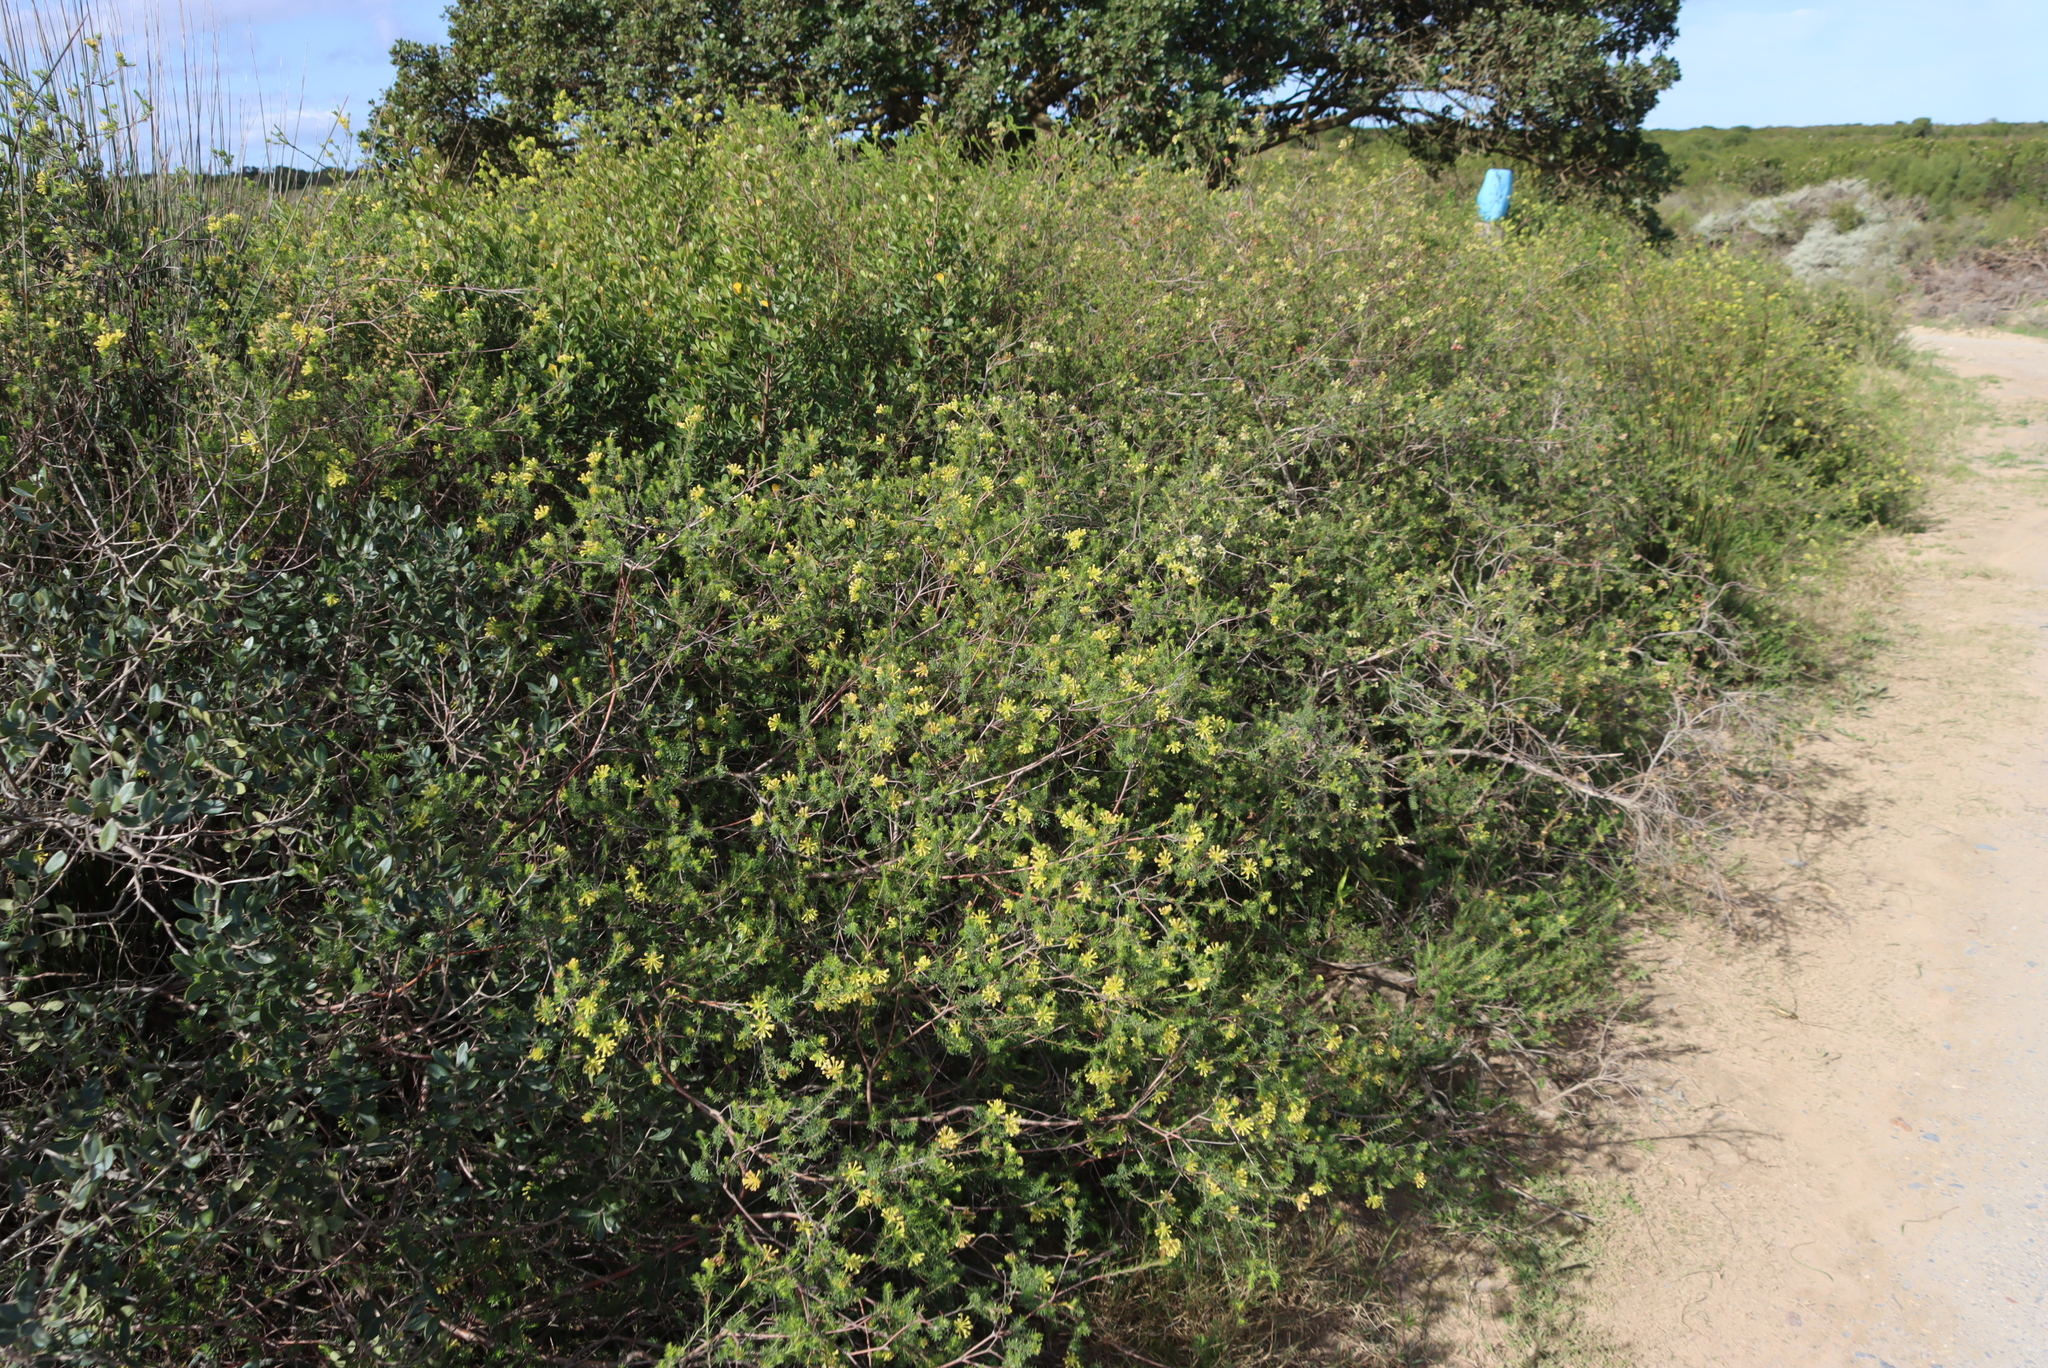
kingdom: Plantae
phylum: Tracheophyta
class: Magnoliopsida
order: Malvales
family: Thymelaeaceae
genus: Gnidia
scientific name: Gnidia squarrosa
